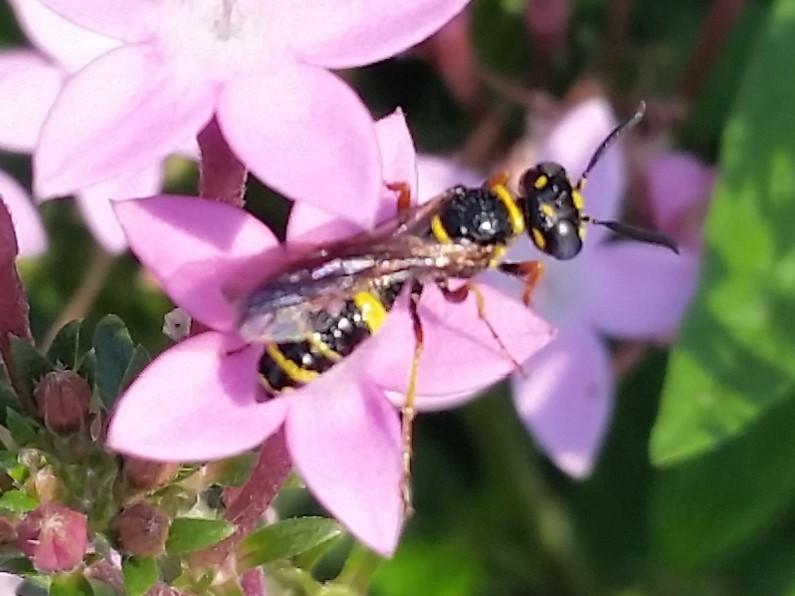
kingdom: Animalia
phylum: Arthropoda
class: Insecta
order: Hymenoptera
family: Crabronidae
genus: Philanthus
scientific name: Philanthus gibbosus
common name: Humped beewolf
